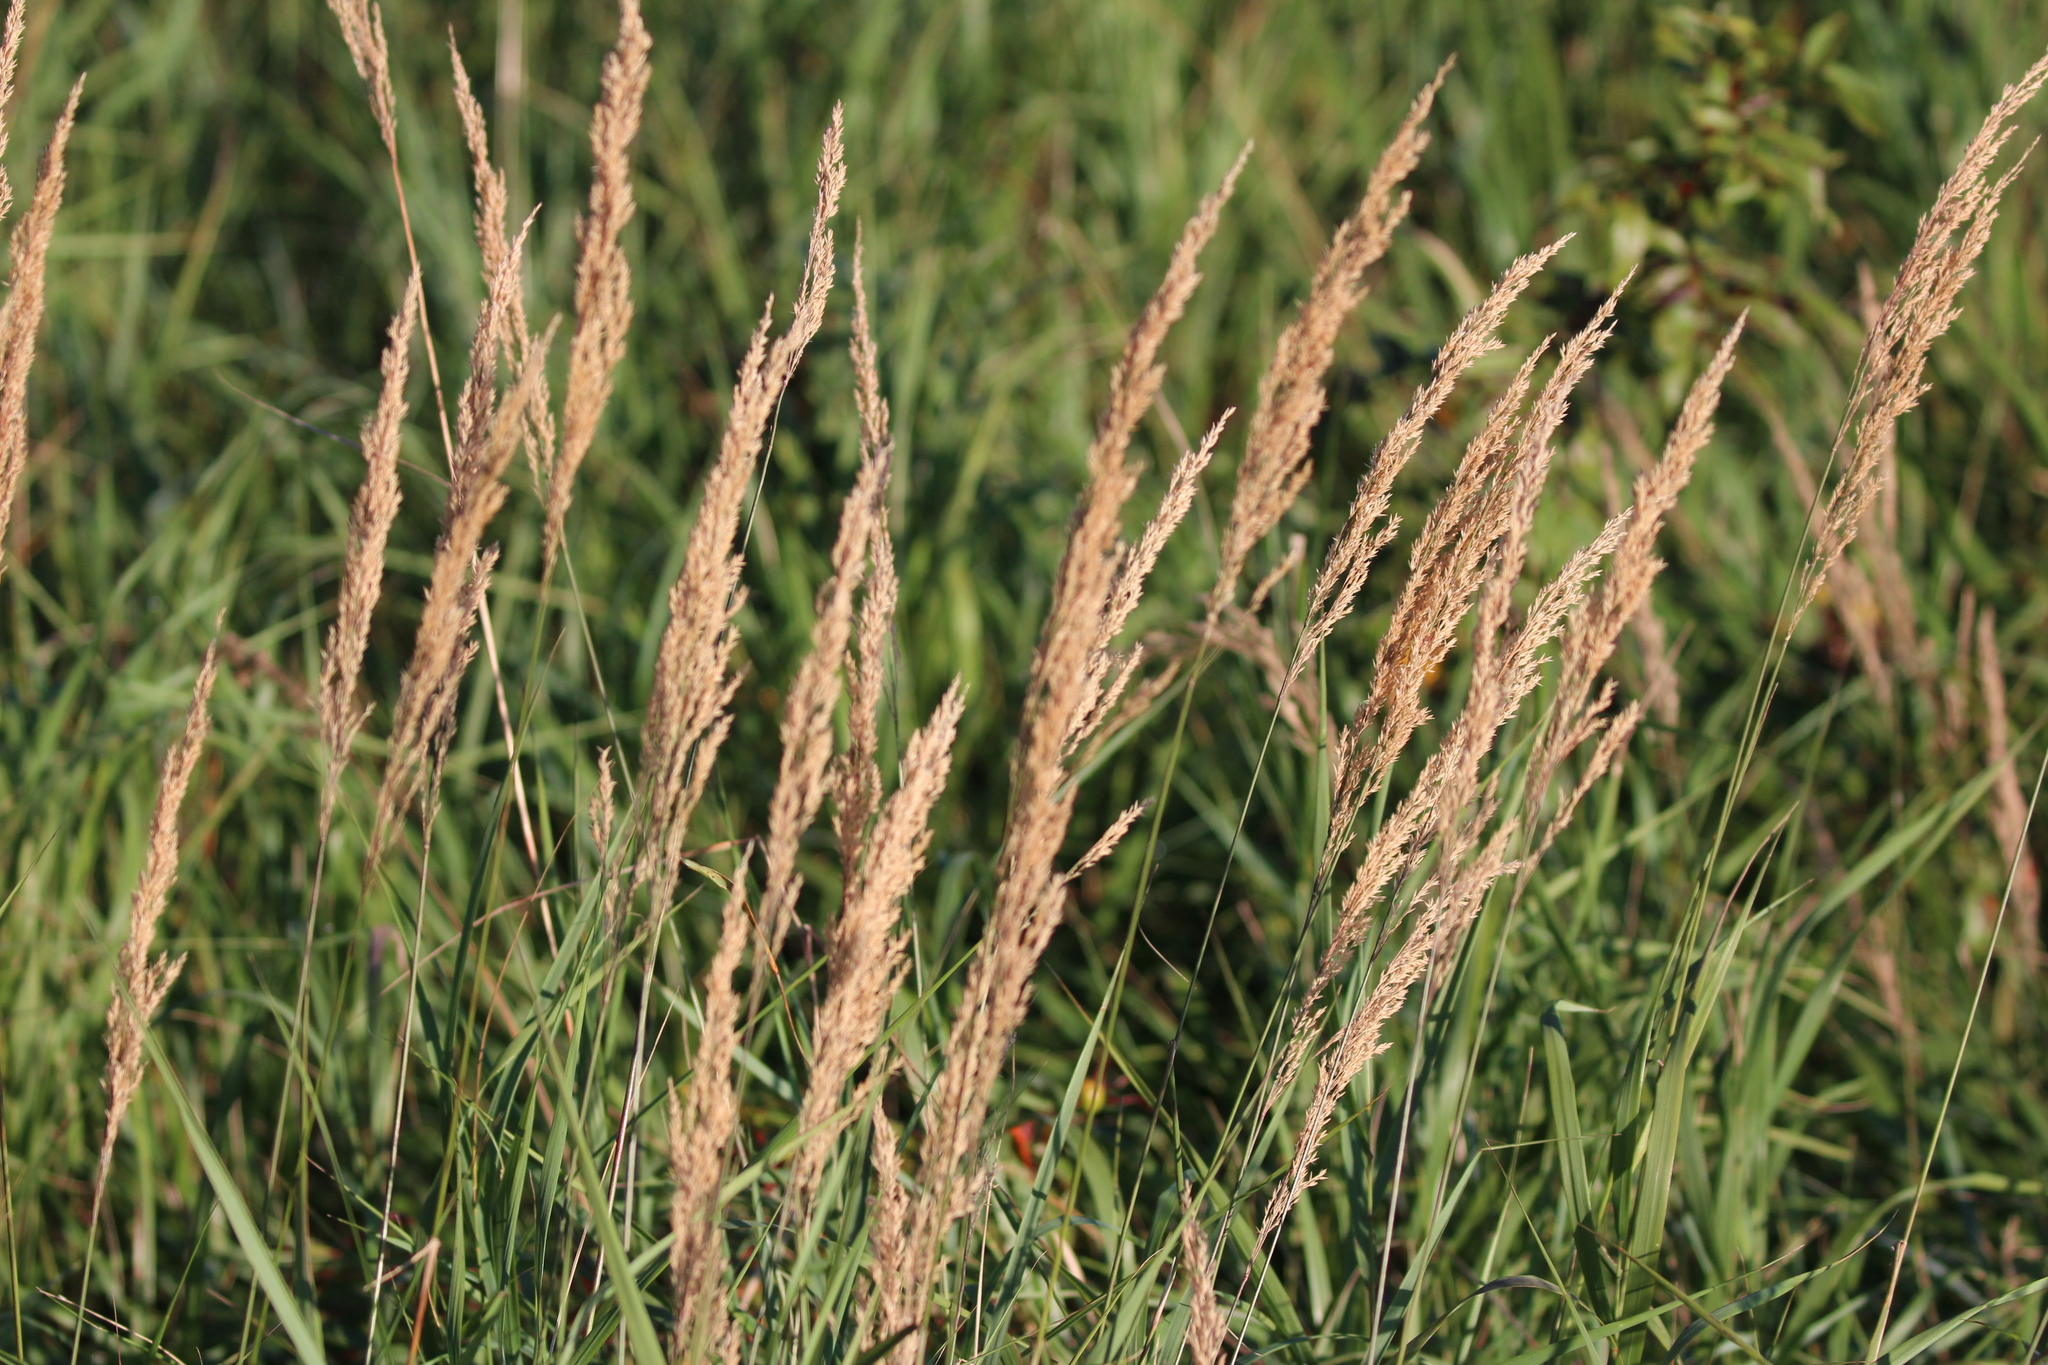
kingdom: Plantae
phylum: Tracheophyta
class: Liliopsida
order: Poales
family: Poaceae
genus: Calamagrostis
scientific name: Calamagrostis canadensis
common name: Canada bluejoint
